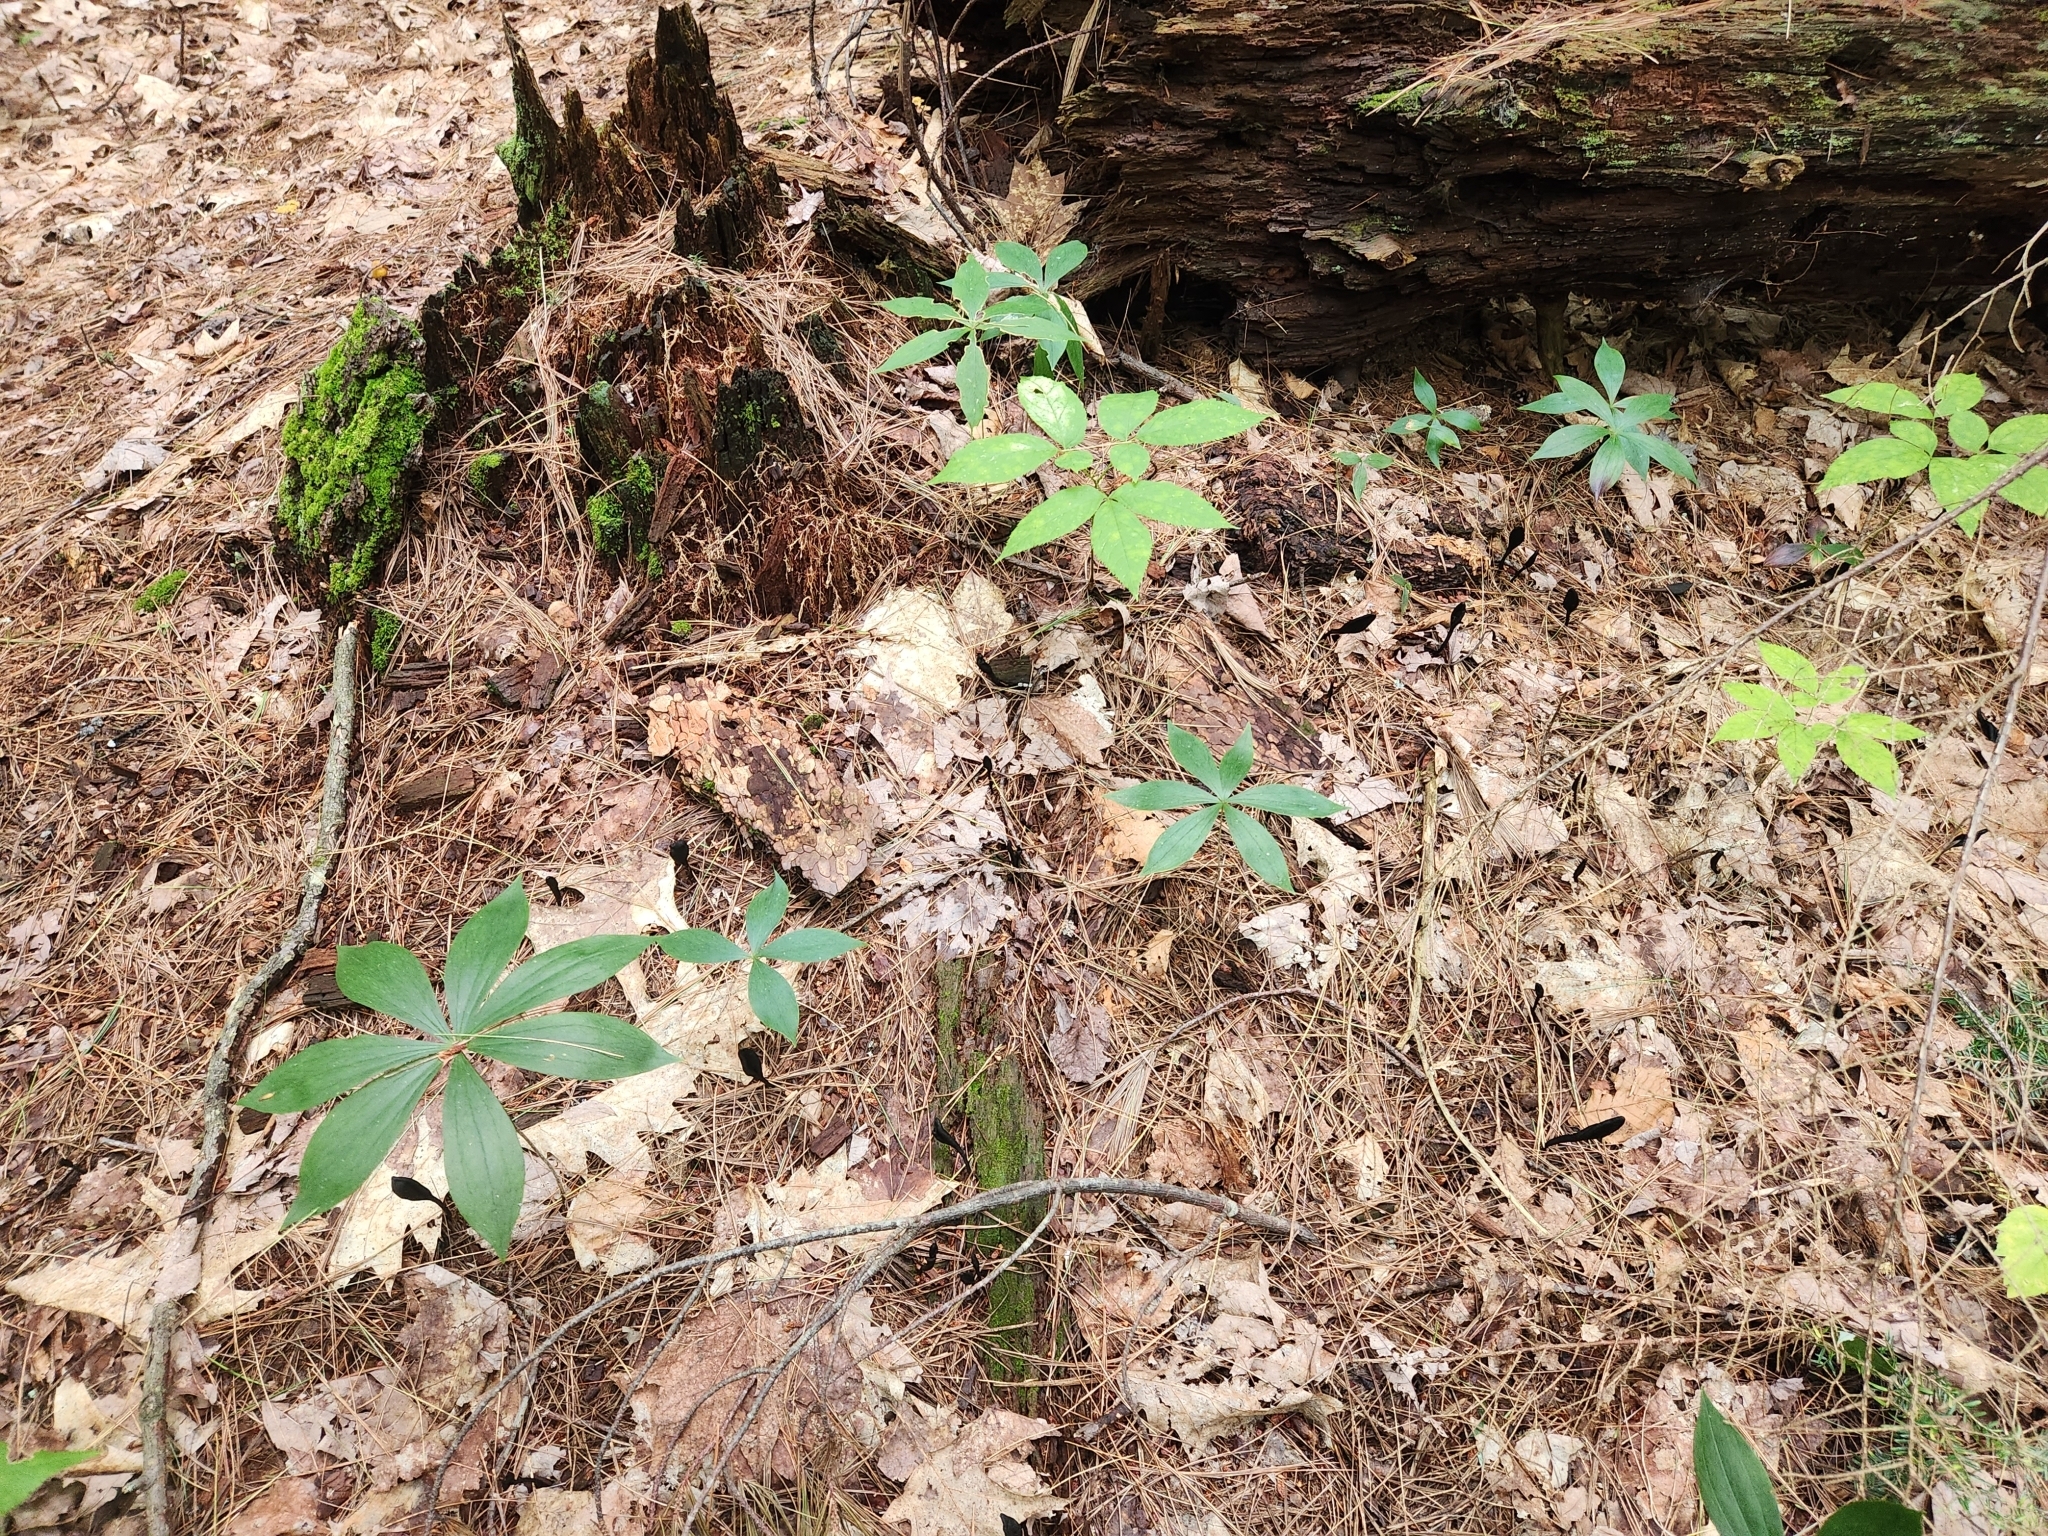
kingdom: Plantae
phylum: Tracheophyta
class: Liliopsida
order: Liliales
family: Liliaceae
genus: Medeola
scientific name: Medeola virginiana
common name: Indian cucumber-root
